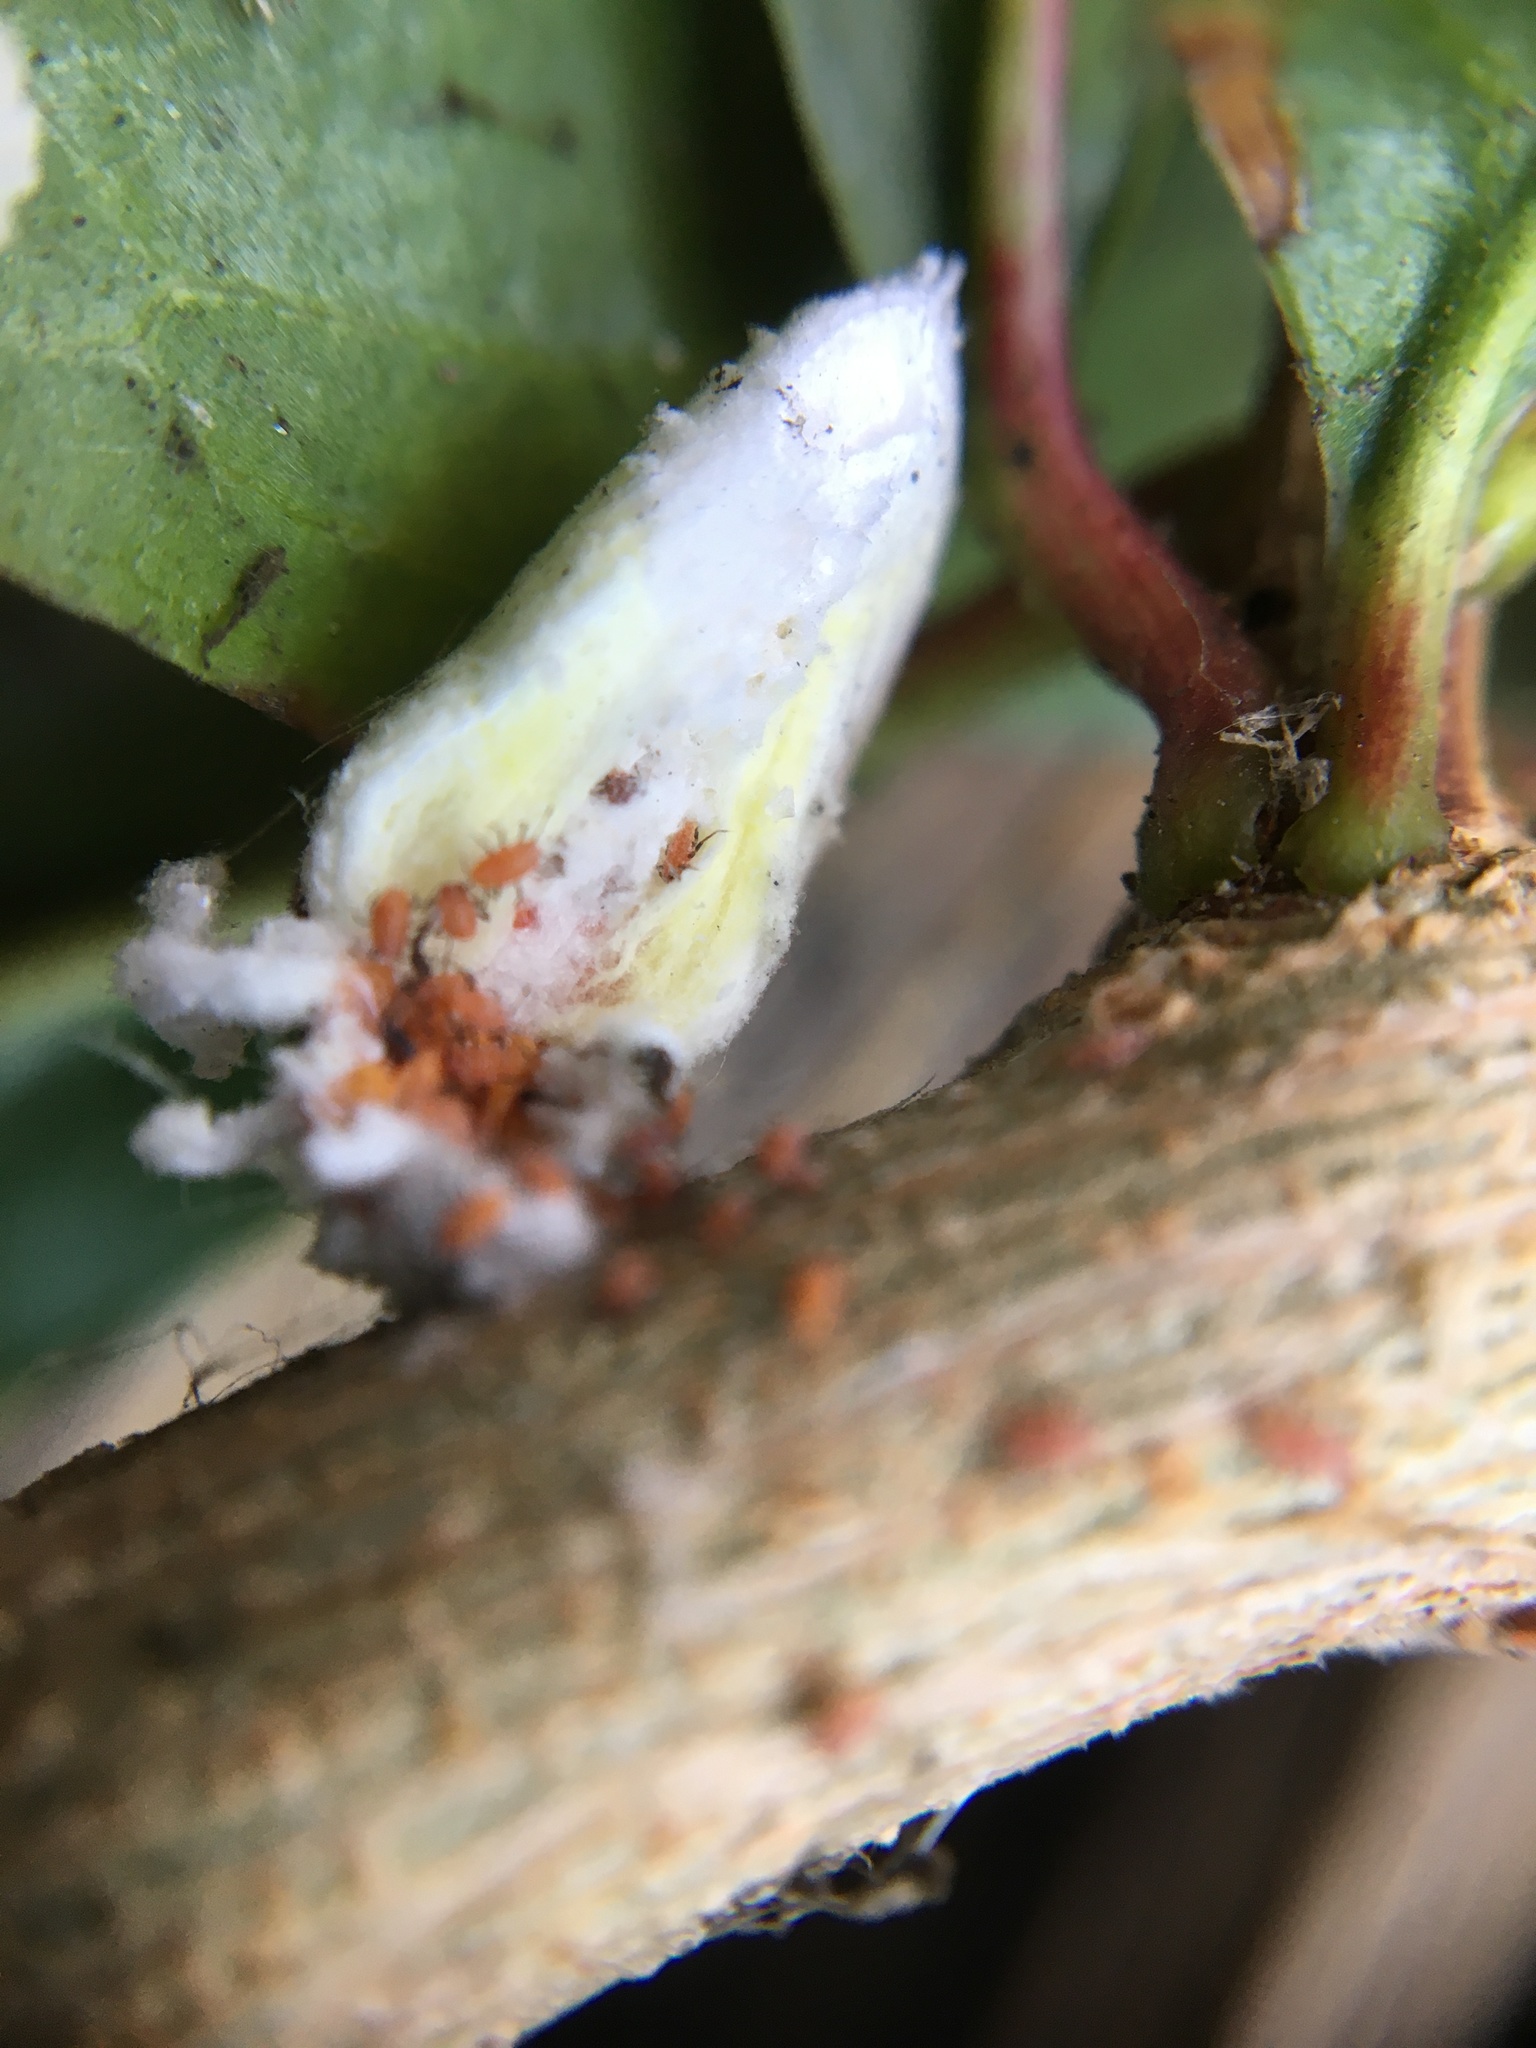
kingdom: Animalia
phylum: Arthropoda
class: Insecta
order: Hemiptera
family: Margarodidae
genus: Icerya
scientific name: Icerya purchasi
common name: Cottony cushion scale
